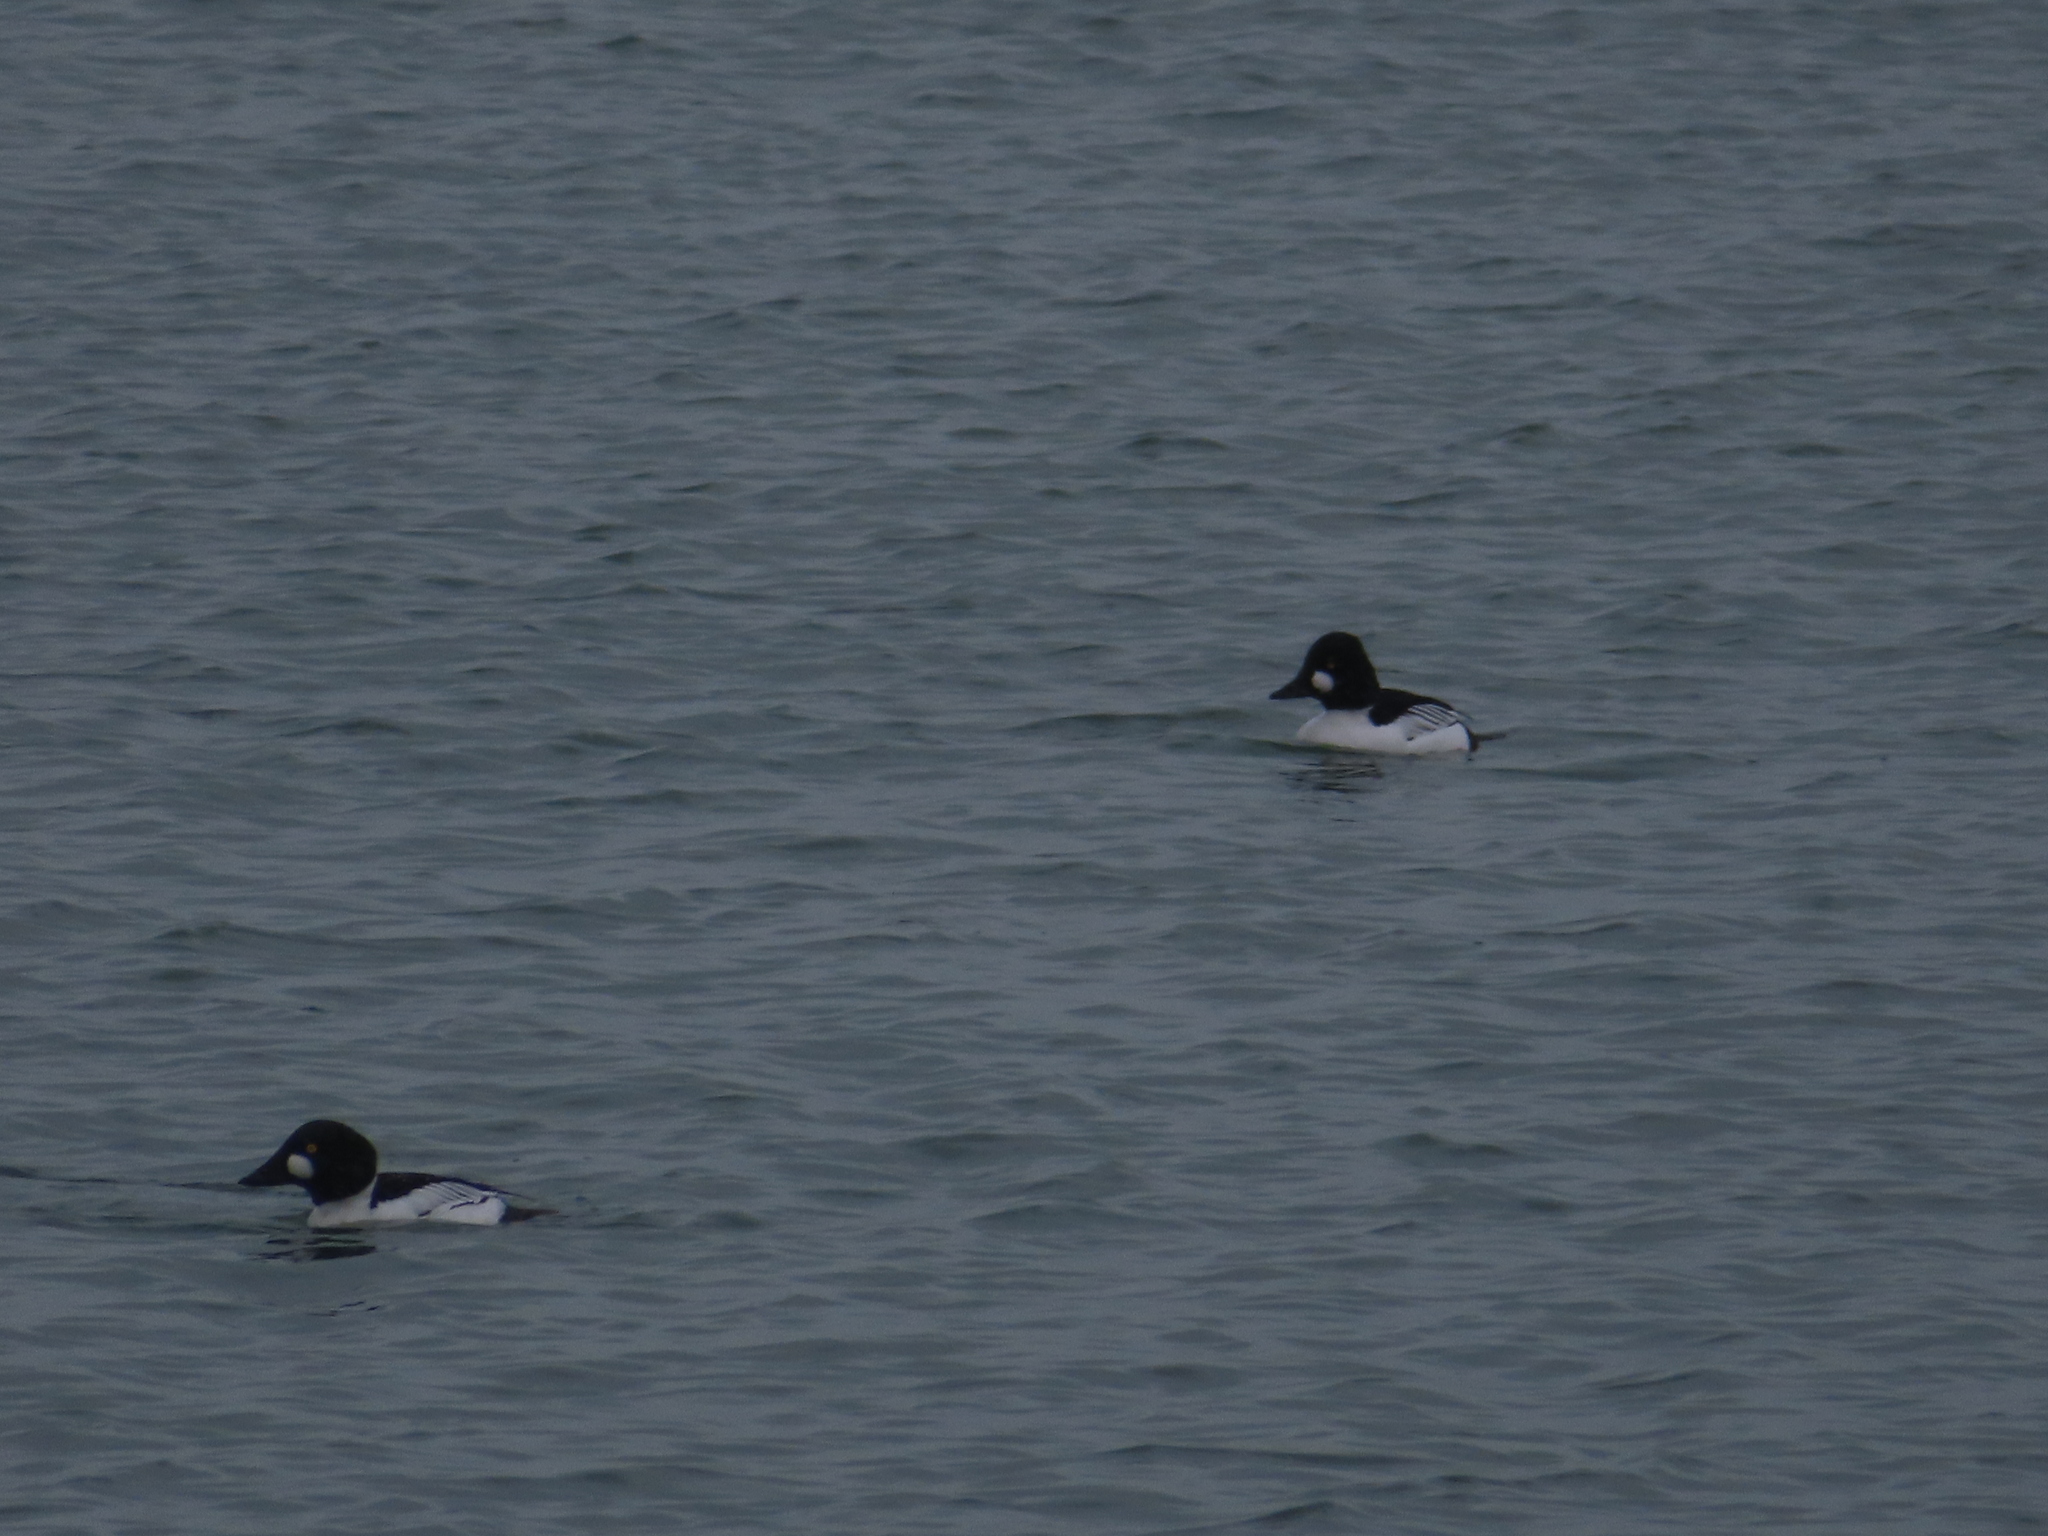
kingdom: Animalia
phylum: Chordata
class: Aves
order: Anseriformes
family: Anatidae
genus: Bucephala
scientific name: Bucephala clangula
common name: Common goldeneye
